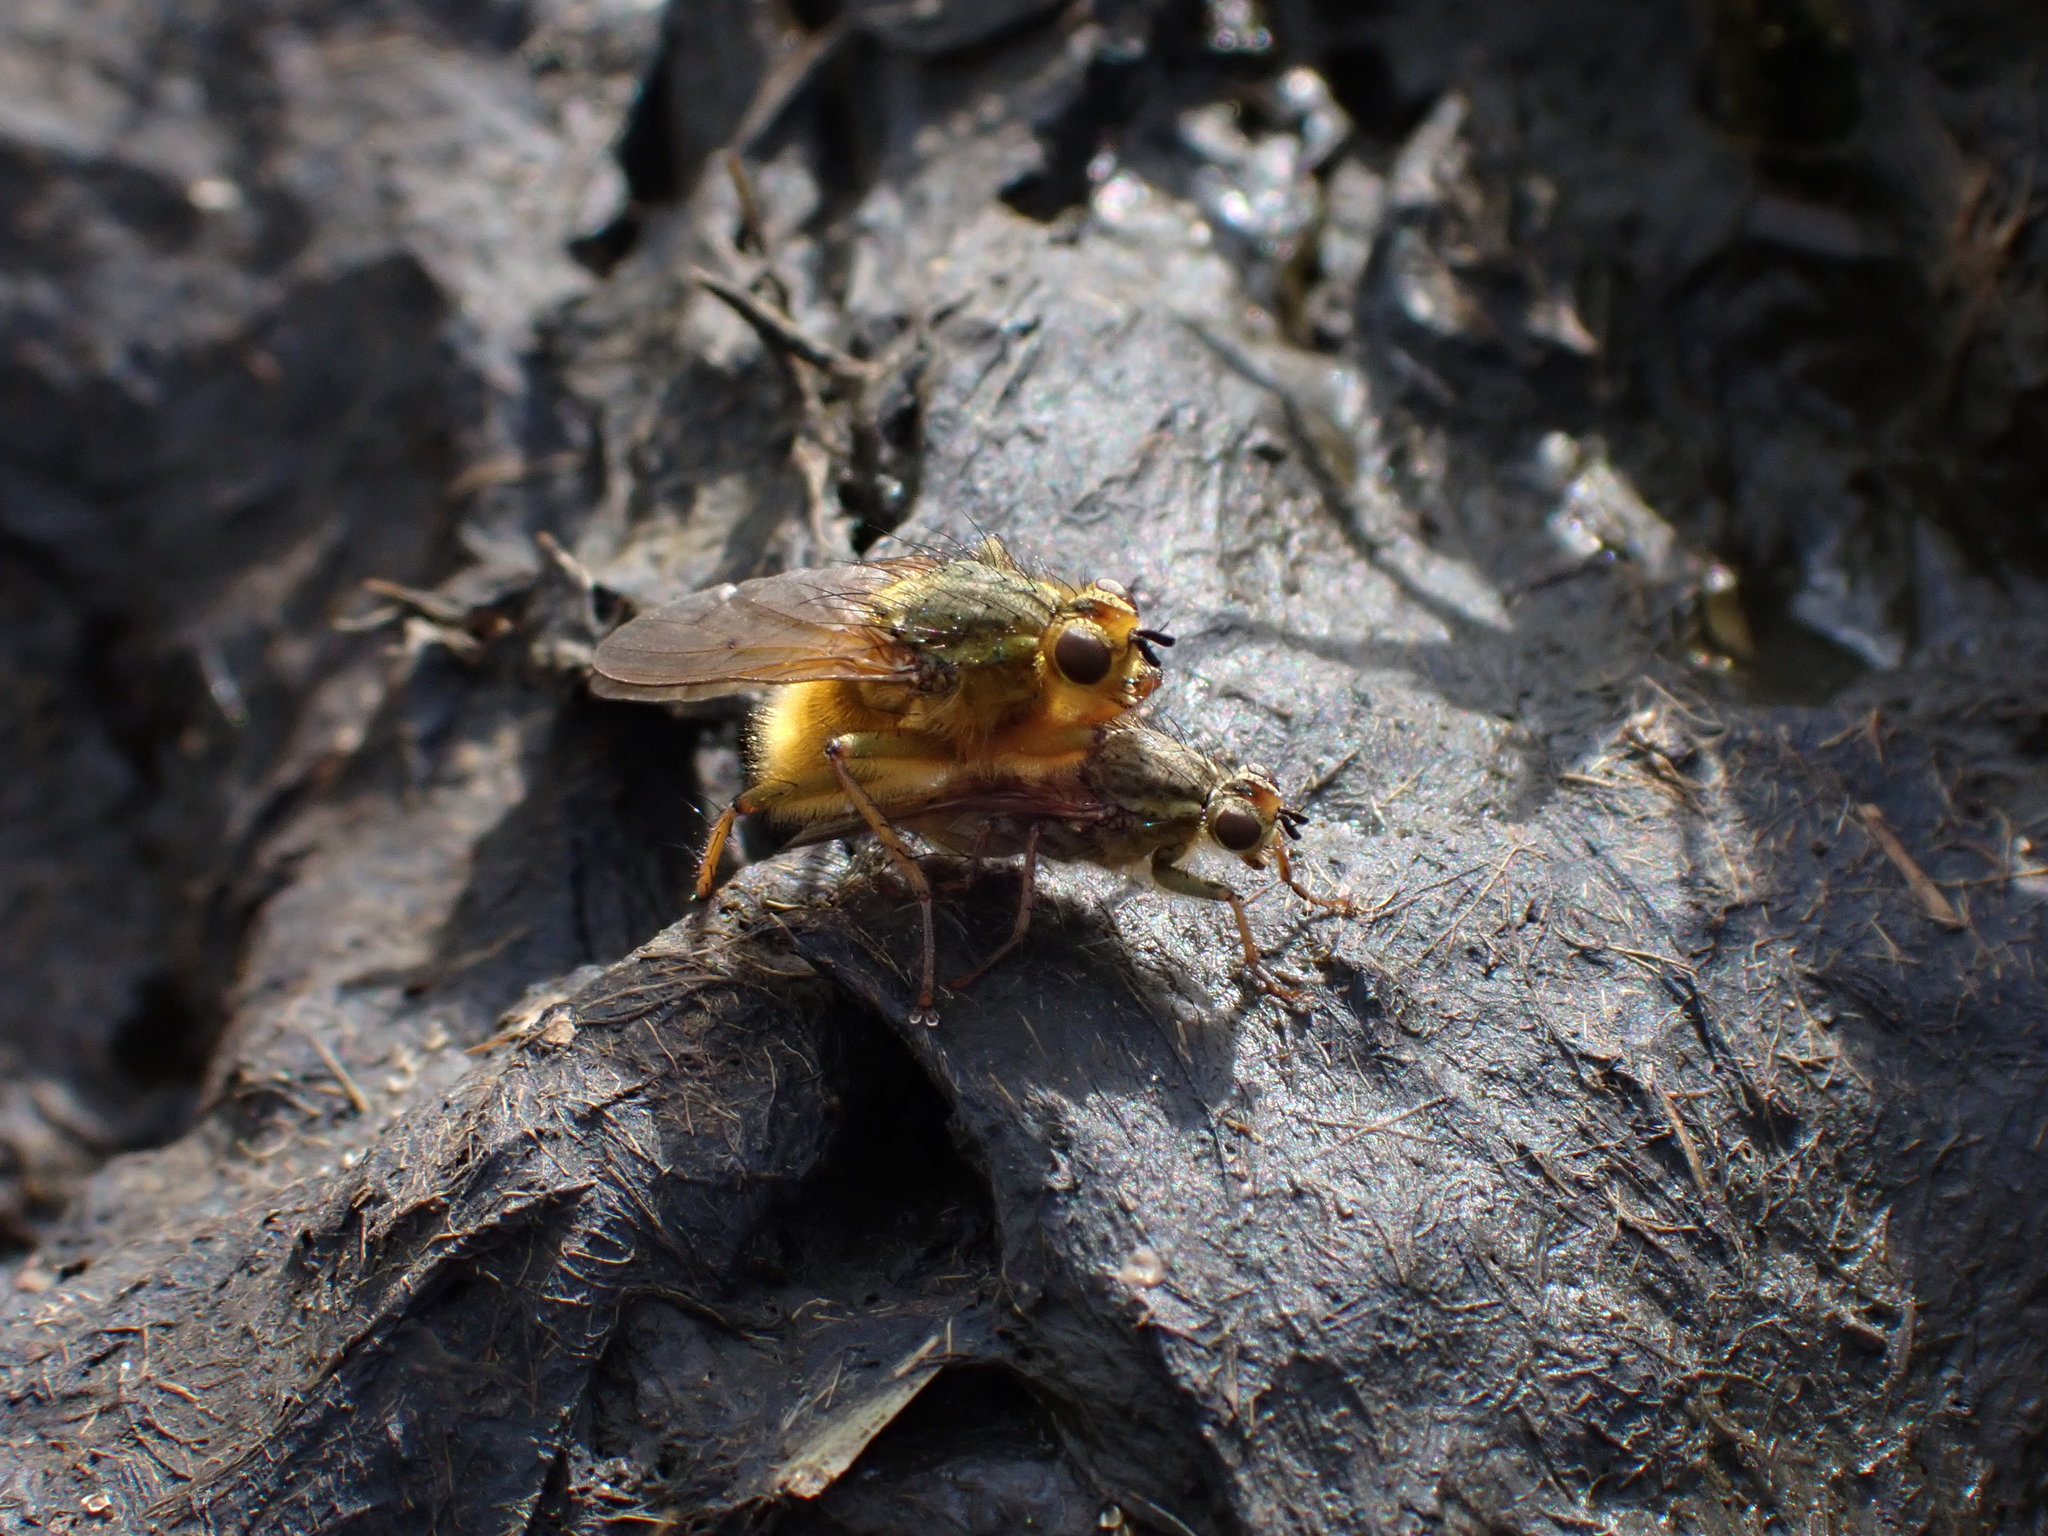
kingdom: Animalia
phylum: Arthropoda
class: Insecta
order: Diptera
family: Scathophagidae
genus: Scathophaga
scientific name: Scathophaga stercoraria
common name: Yellow dung fly
